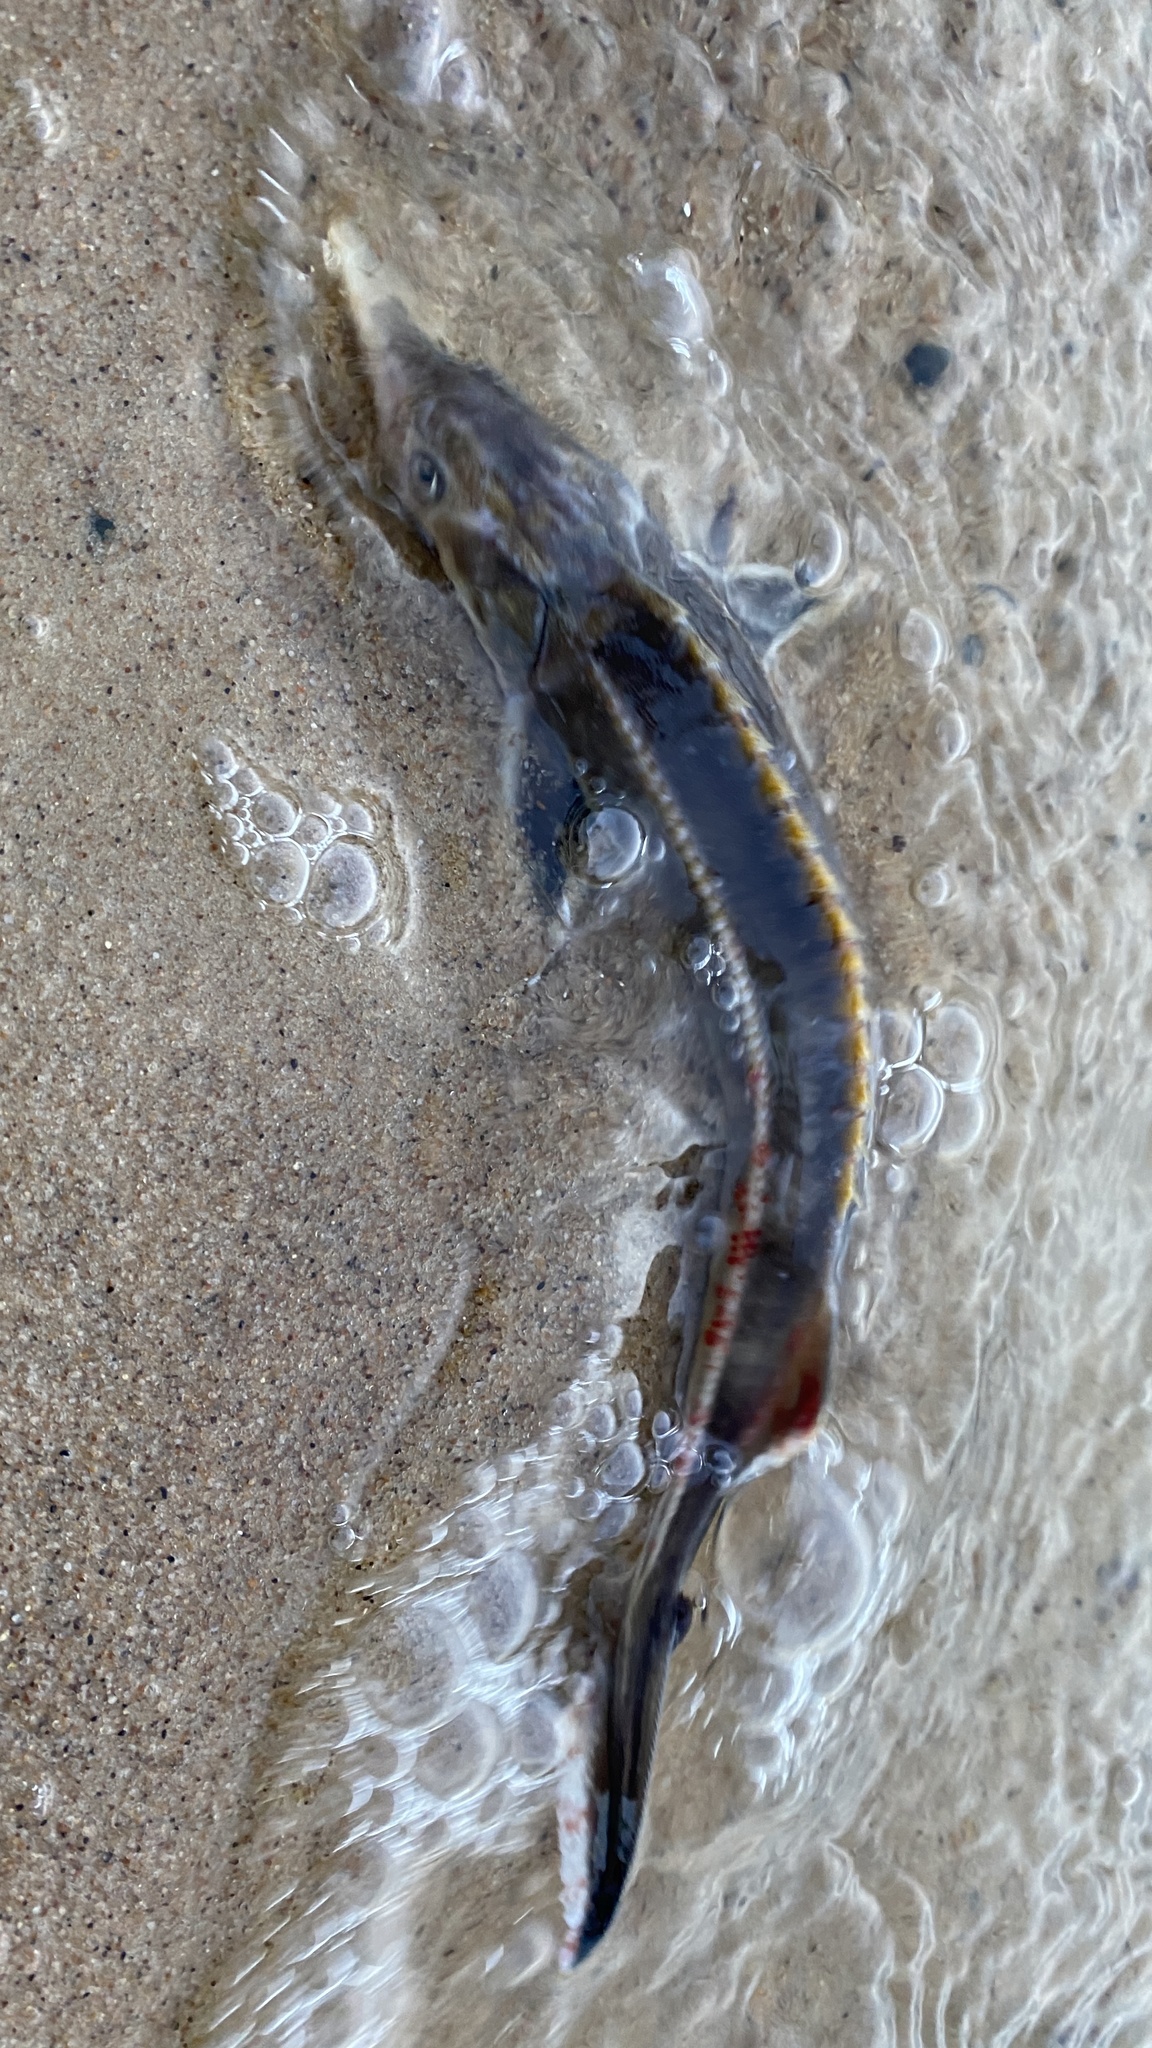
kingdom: Animalia
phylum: Chordata
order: Acipenseriformes
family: Acipenseridae
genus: Acipenser
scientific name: Acipenser ruthenus
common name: Sterlet
